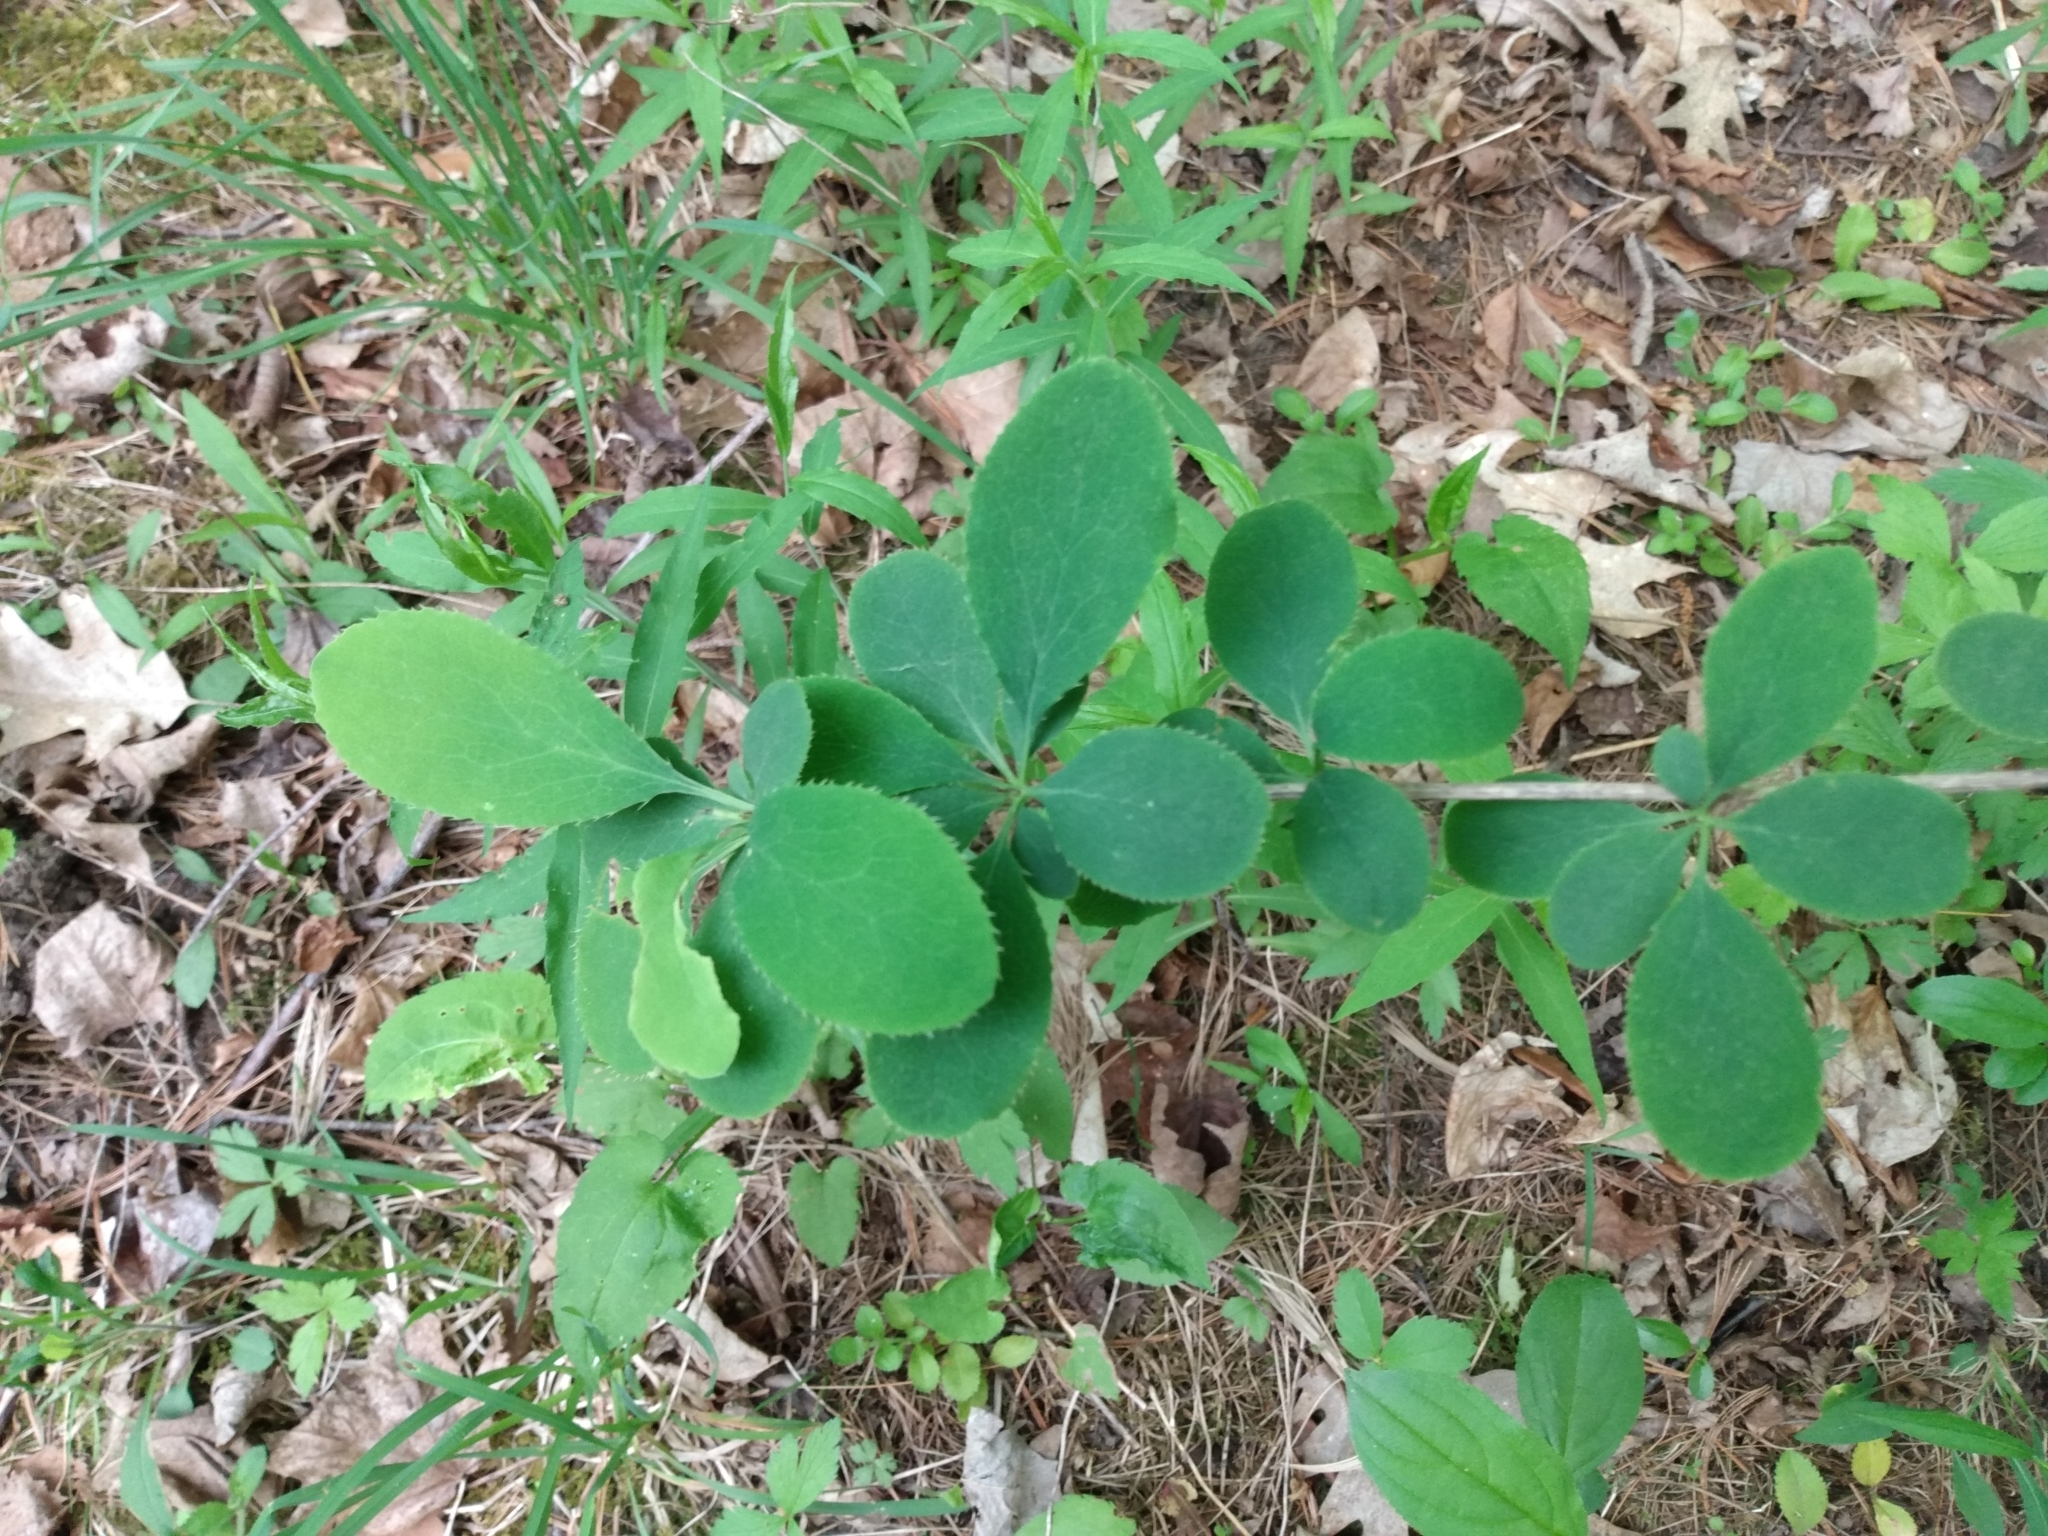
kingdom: Plantae
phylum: Tracheophyta
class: Magnoliopsida
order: Ranunculales
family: Berberidaceae
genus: Berberis
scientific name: Berberis vulgaris
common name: Barberry
